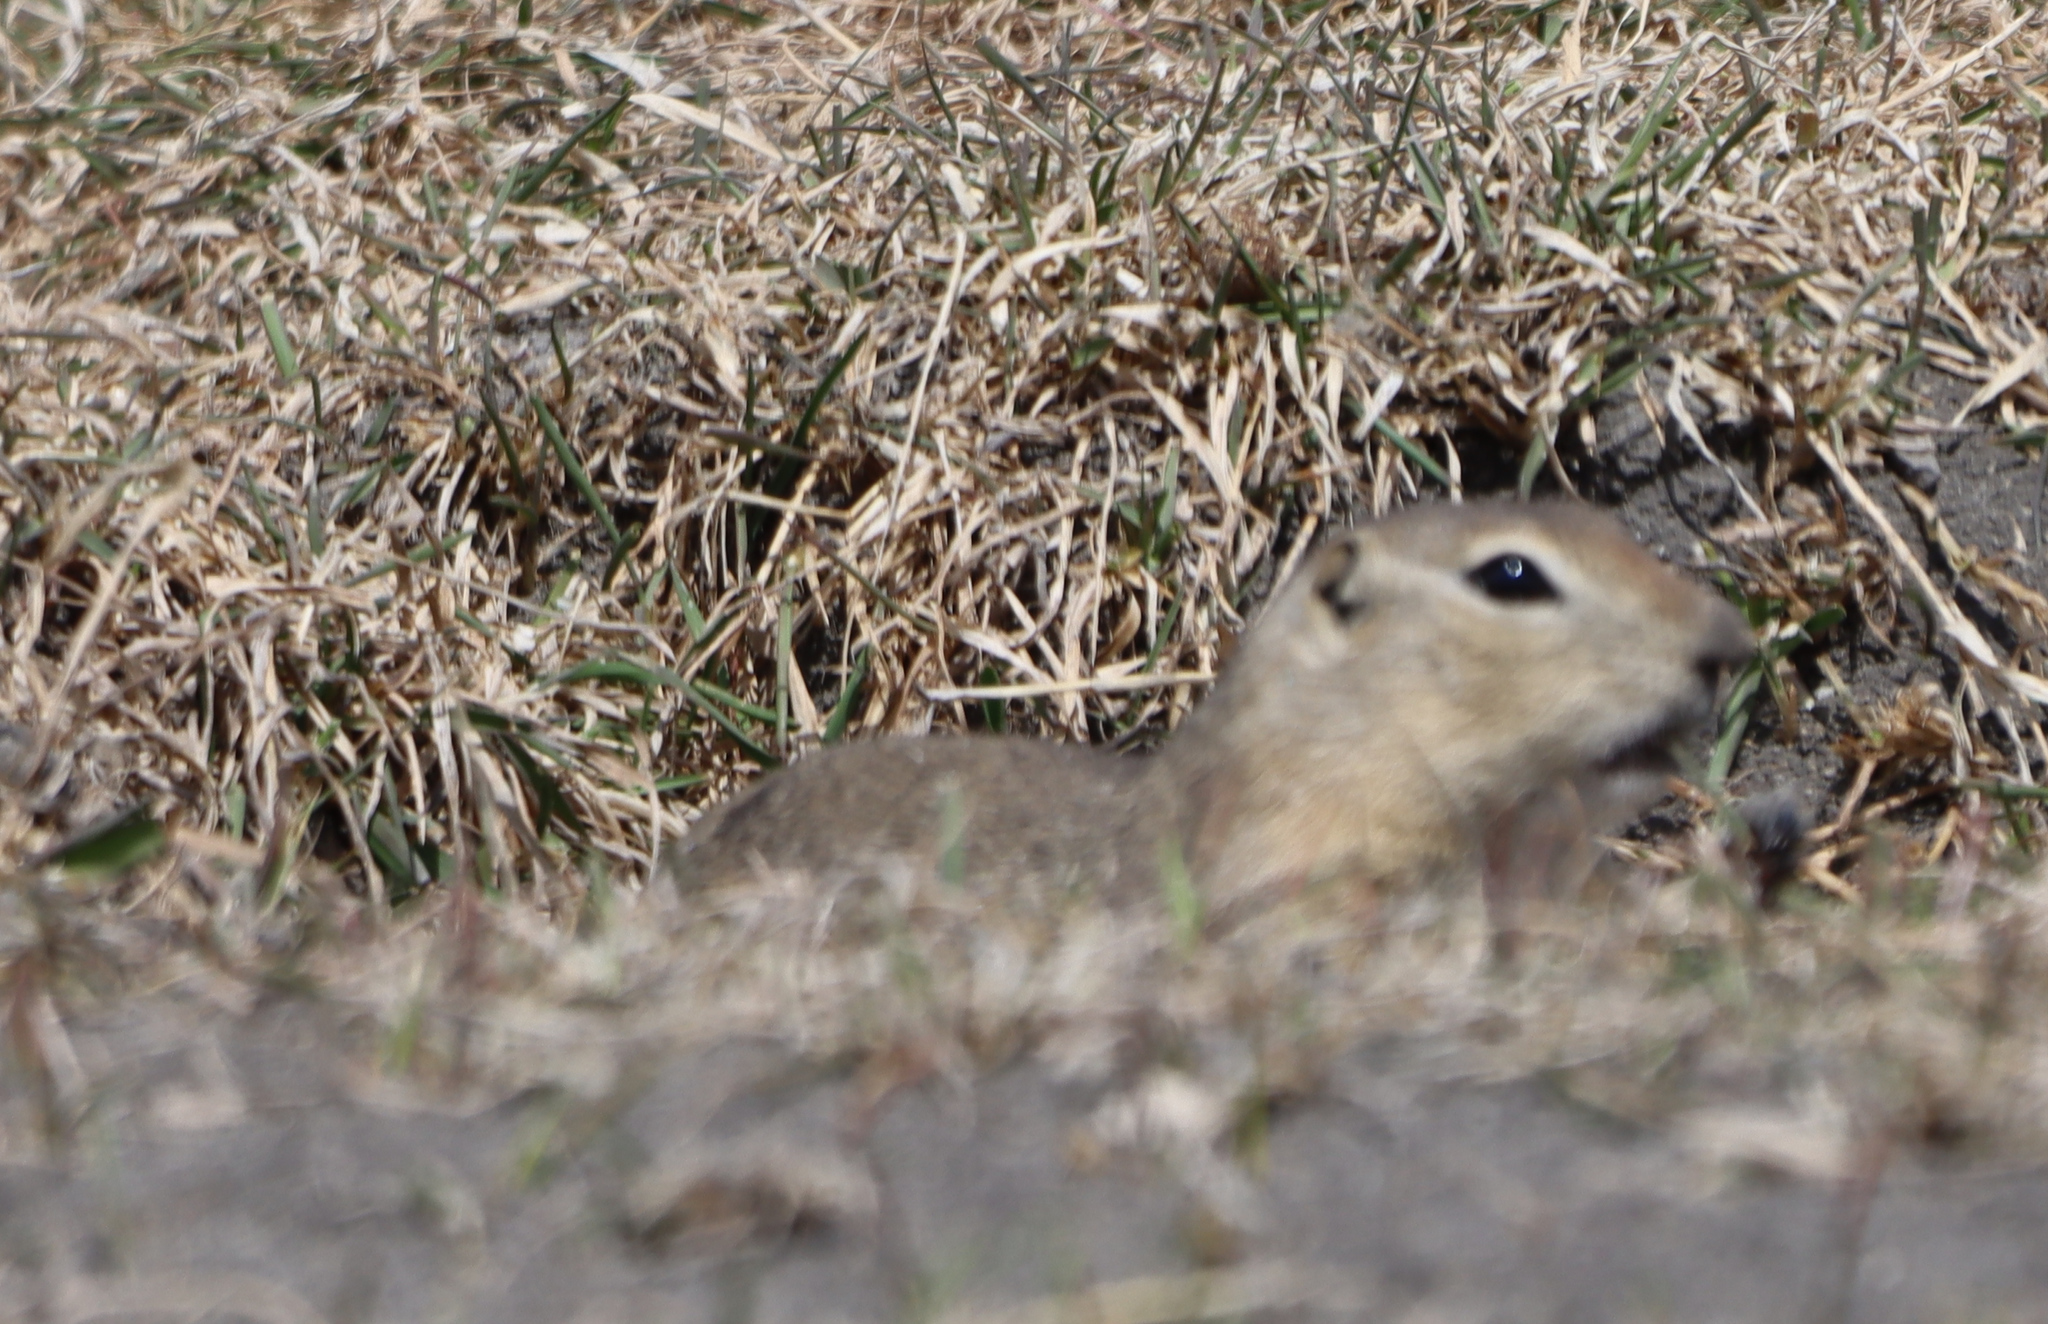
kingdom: Animalia
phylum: Chordata
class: Mammalia
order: Rodentia
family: Sciuridae
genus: Urocitellus
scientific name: Urocitellus richardsonii
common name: Richardson's ground squirrel
